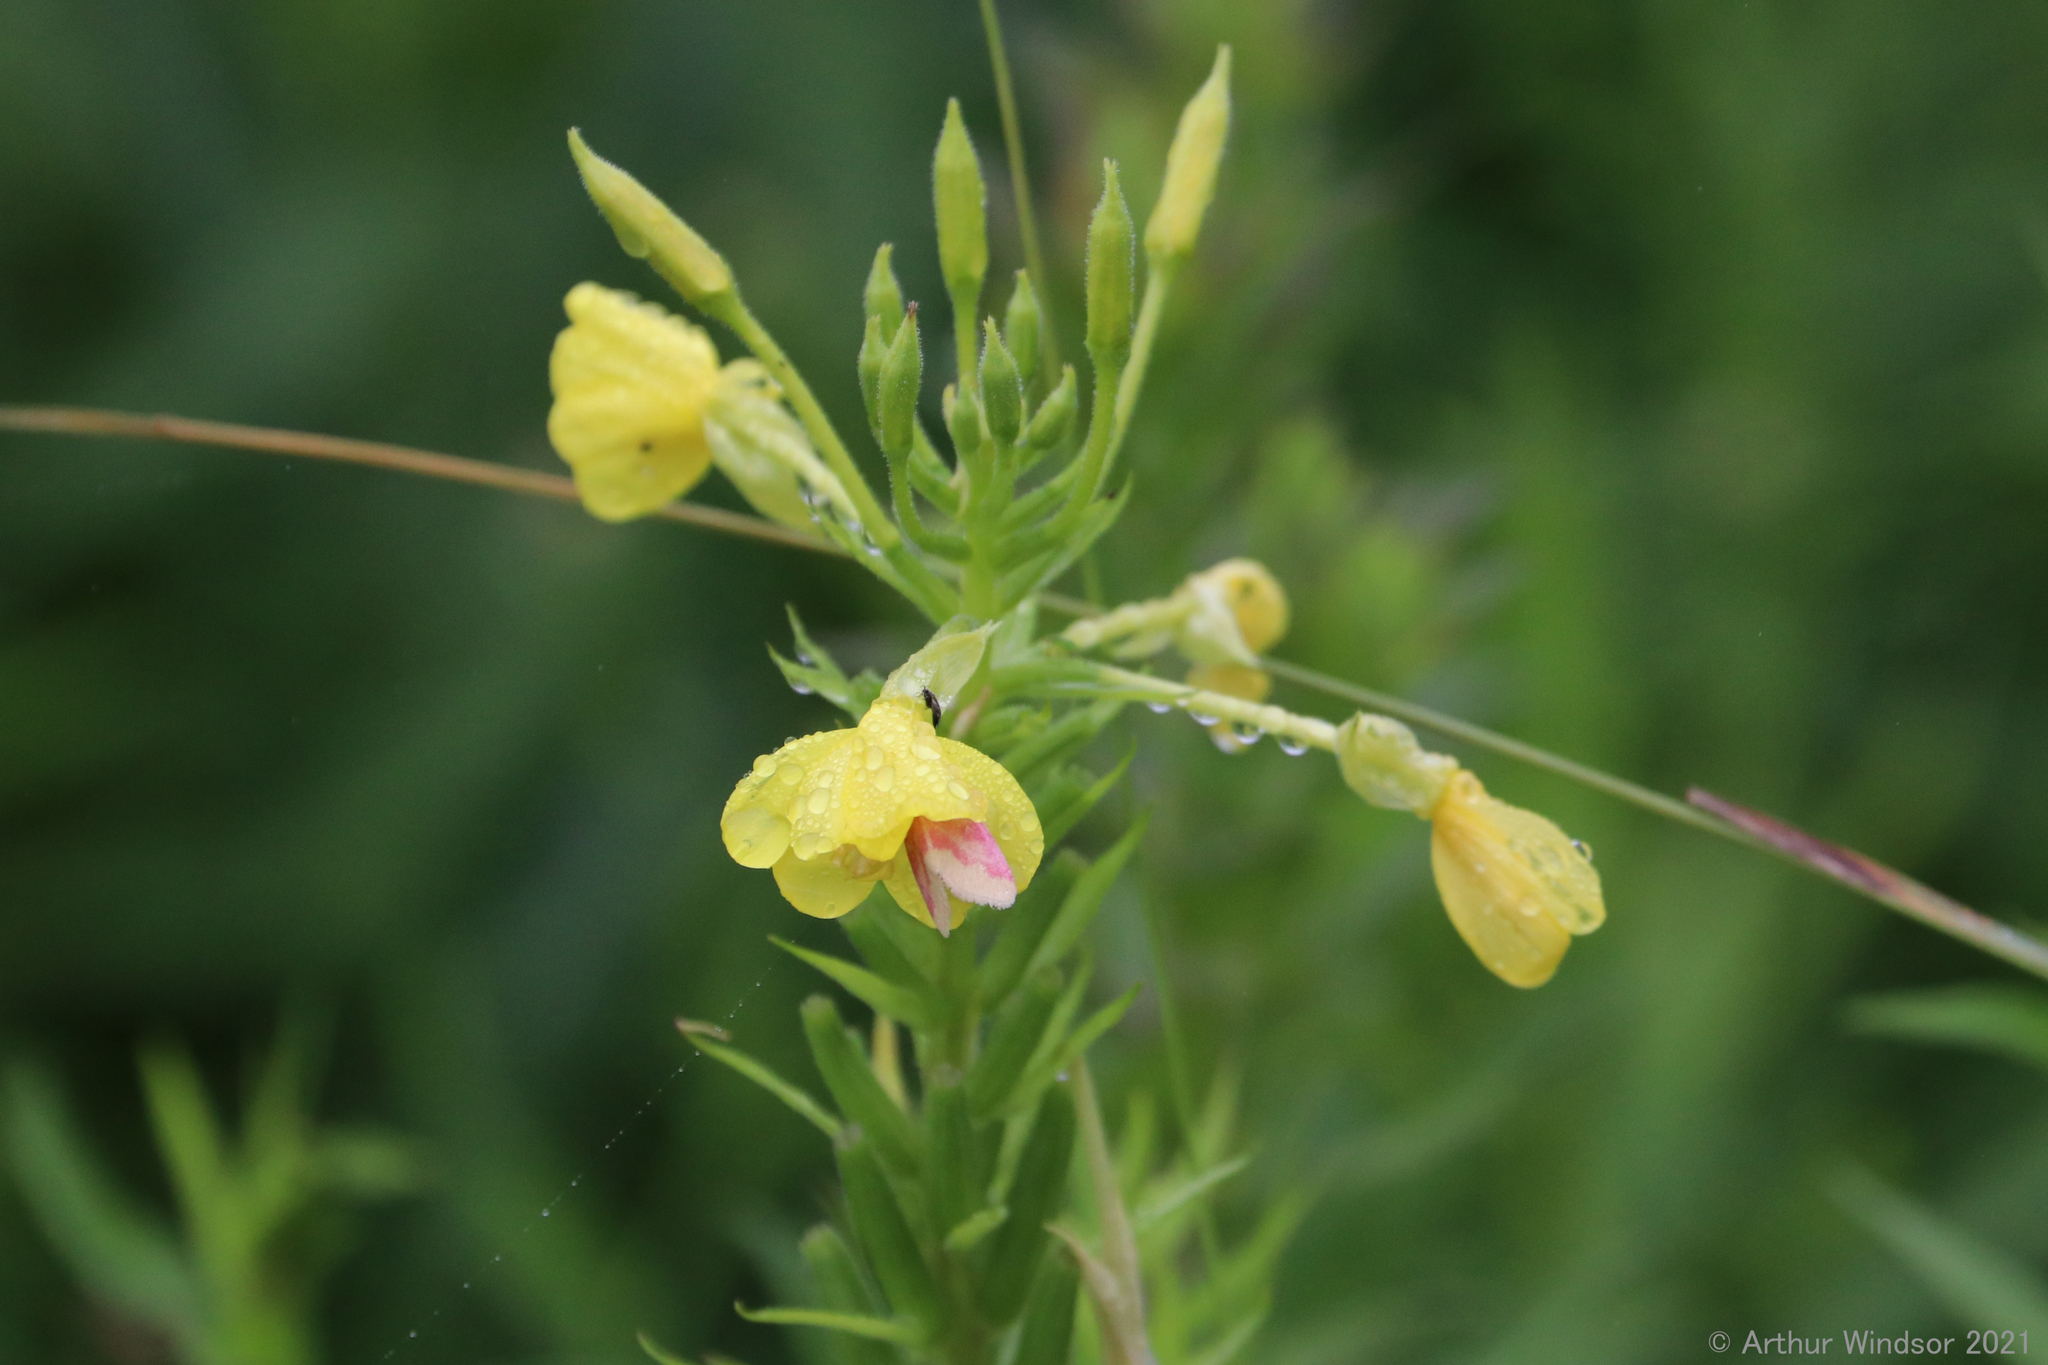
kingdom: Animalia
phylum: Arthropoda
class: Insecta
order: Lepidoptera
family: Noctuidae
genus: Schinia
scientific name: Schinia florida
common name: Primrose moth
